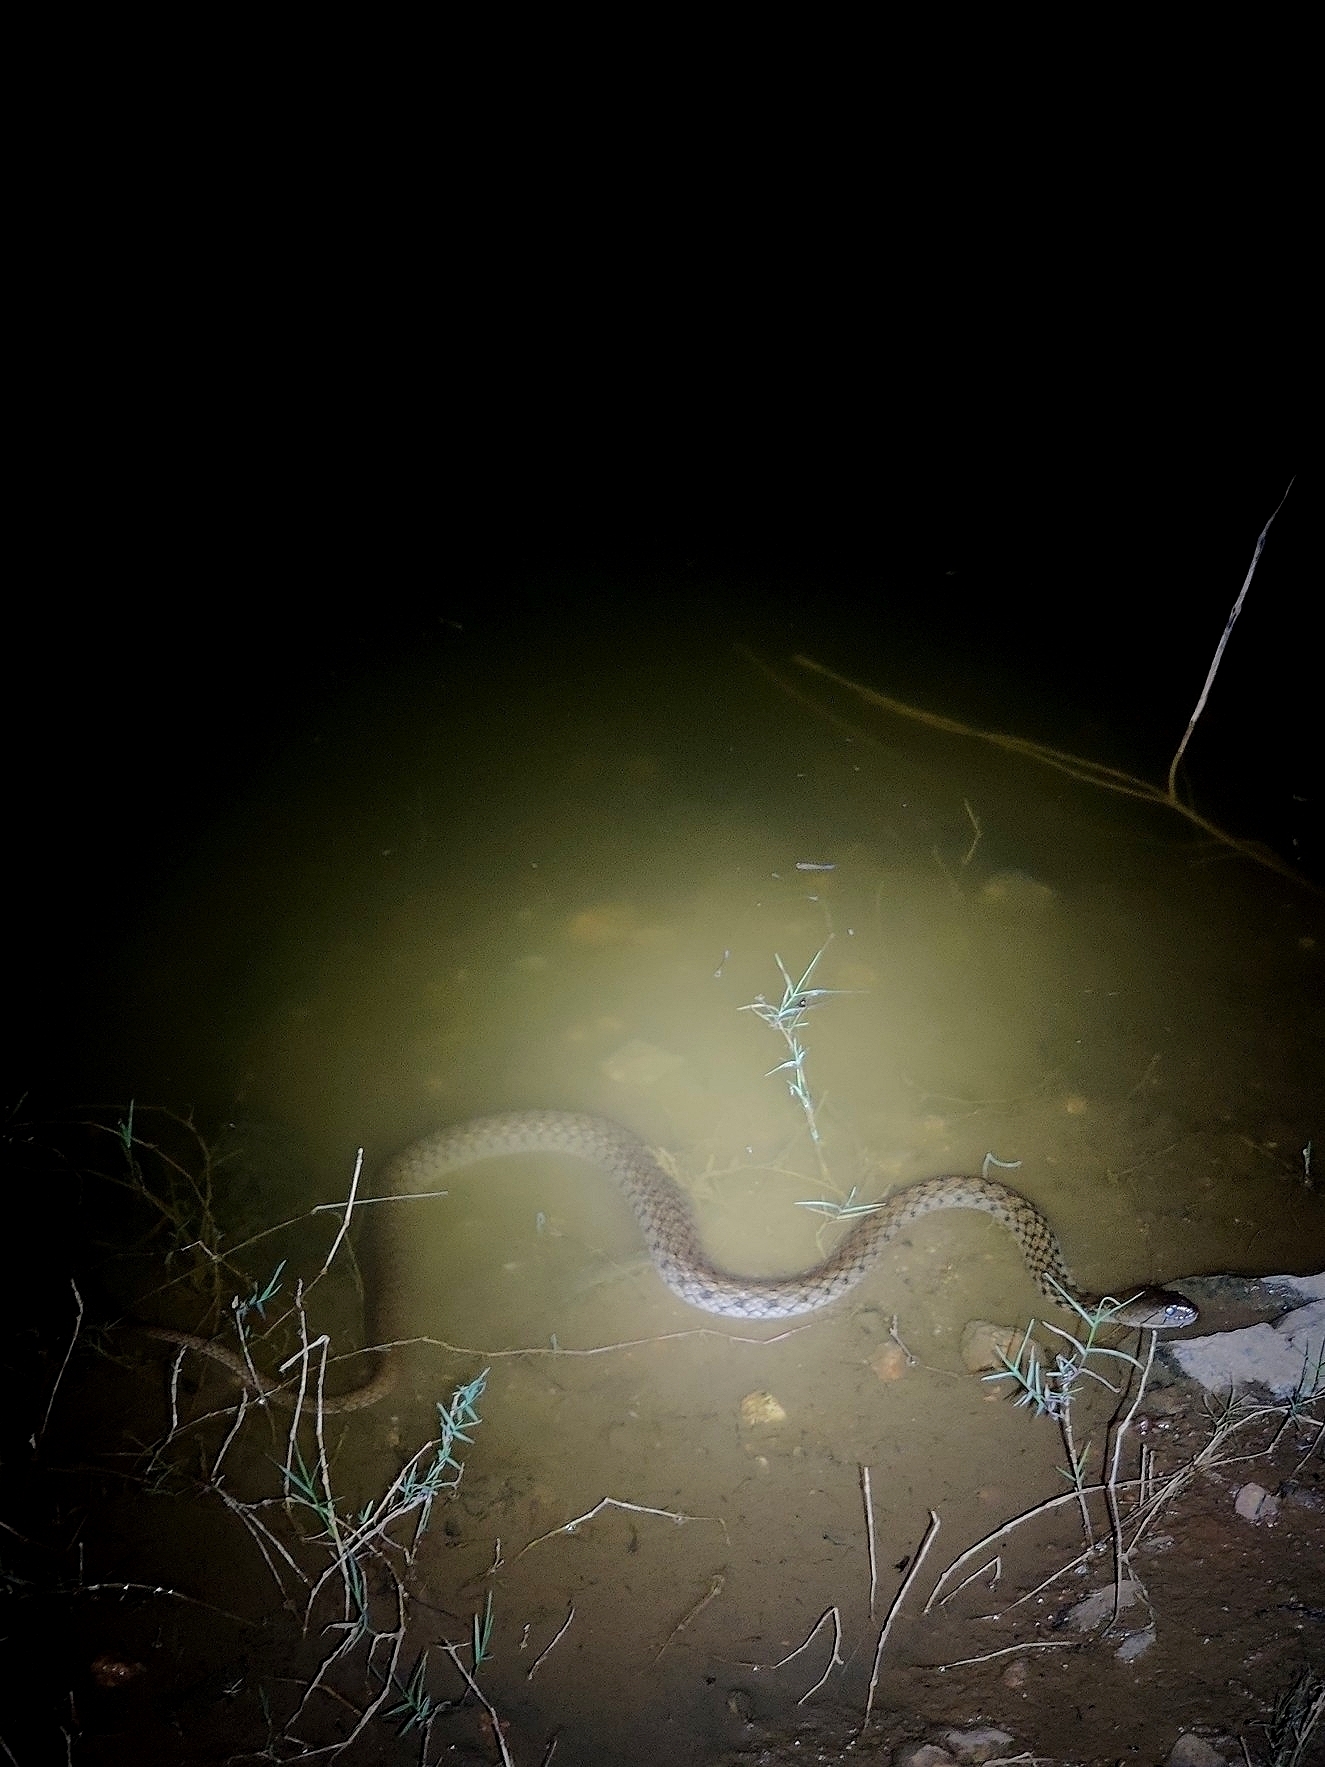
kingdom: Animalia
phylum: Chordata
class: Squamata
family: Colubridae
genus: Fowlea
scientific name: Fowlea piscator
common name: Asiatic water snake
